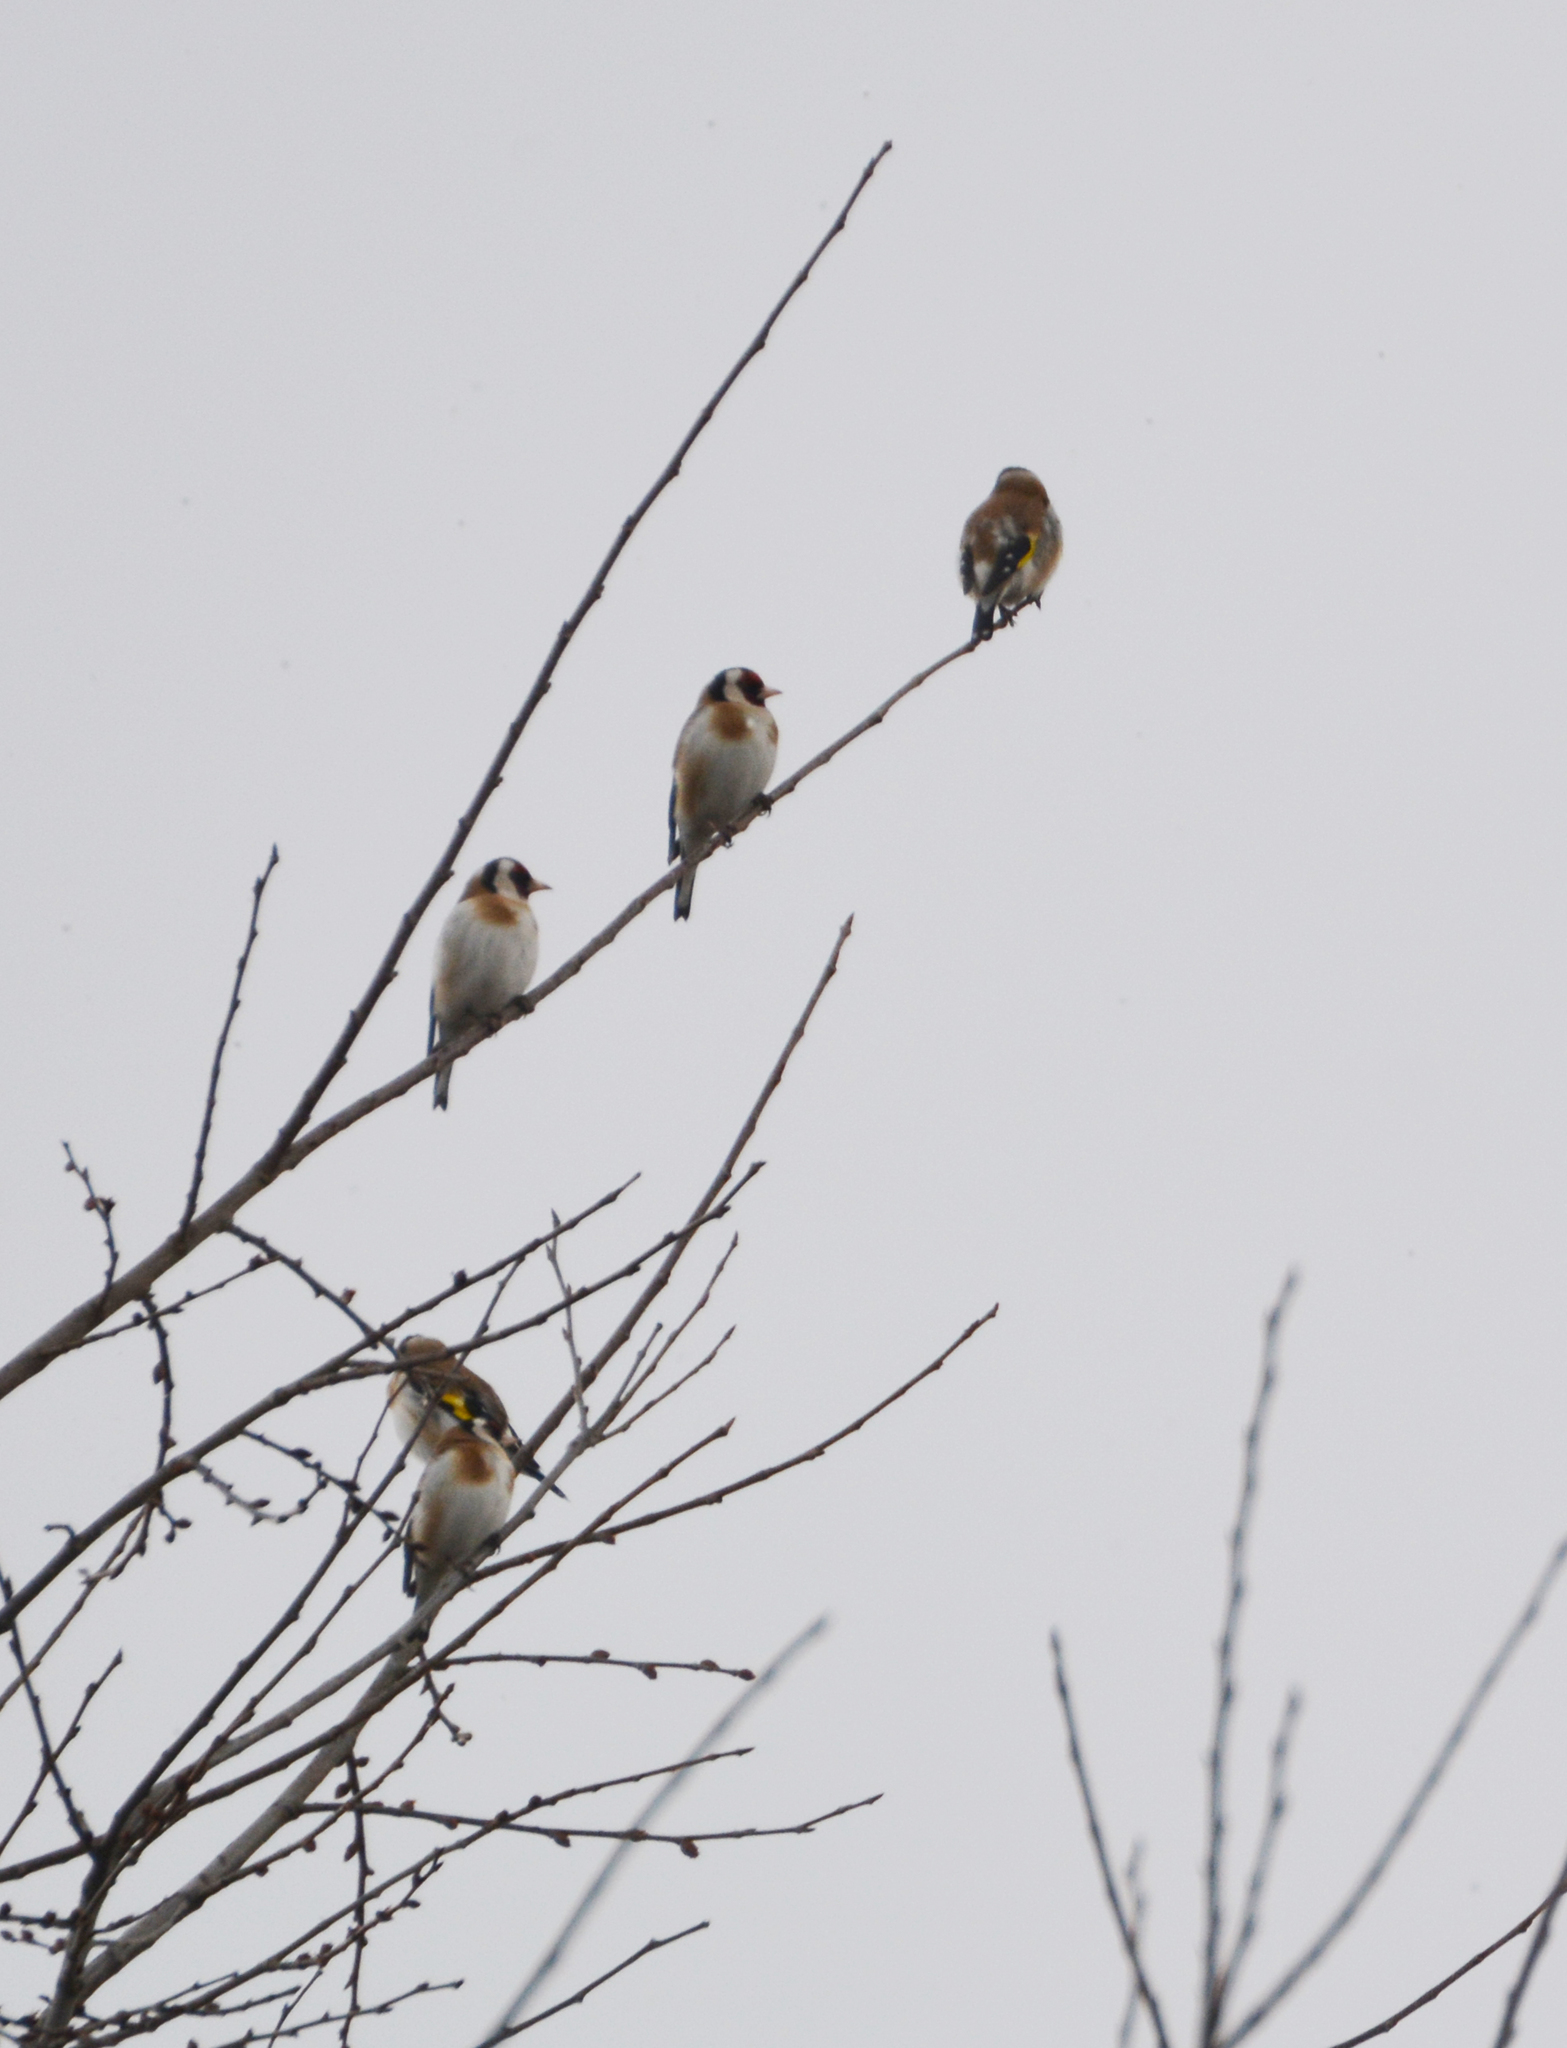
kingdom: Animalia
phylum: Chordata
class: Aves
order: Passeriformes
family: Fringillidae
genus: Carduelis
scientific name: Carduelis carduelis
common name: European goldfinch
